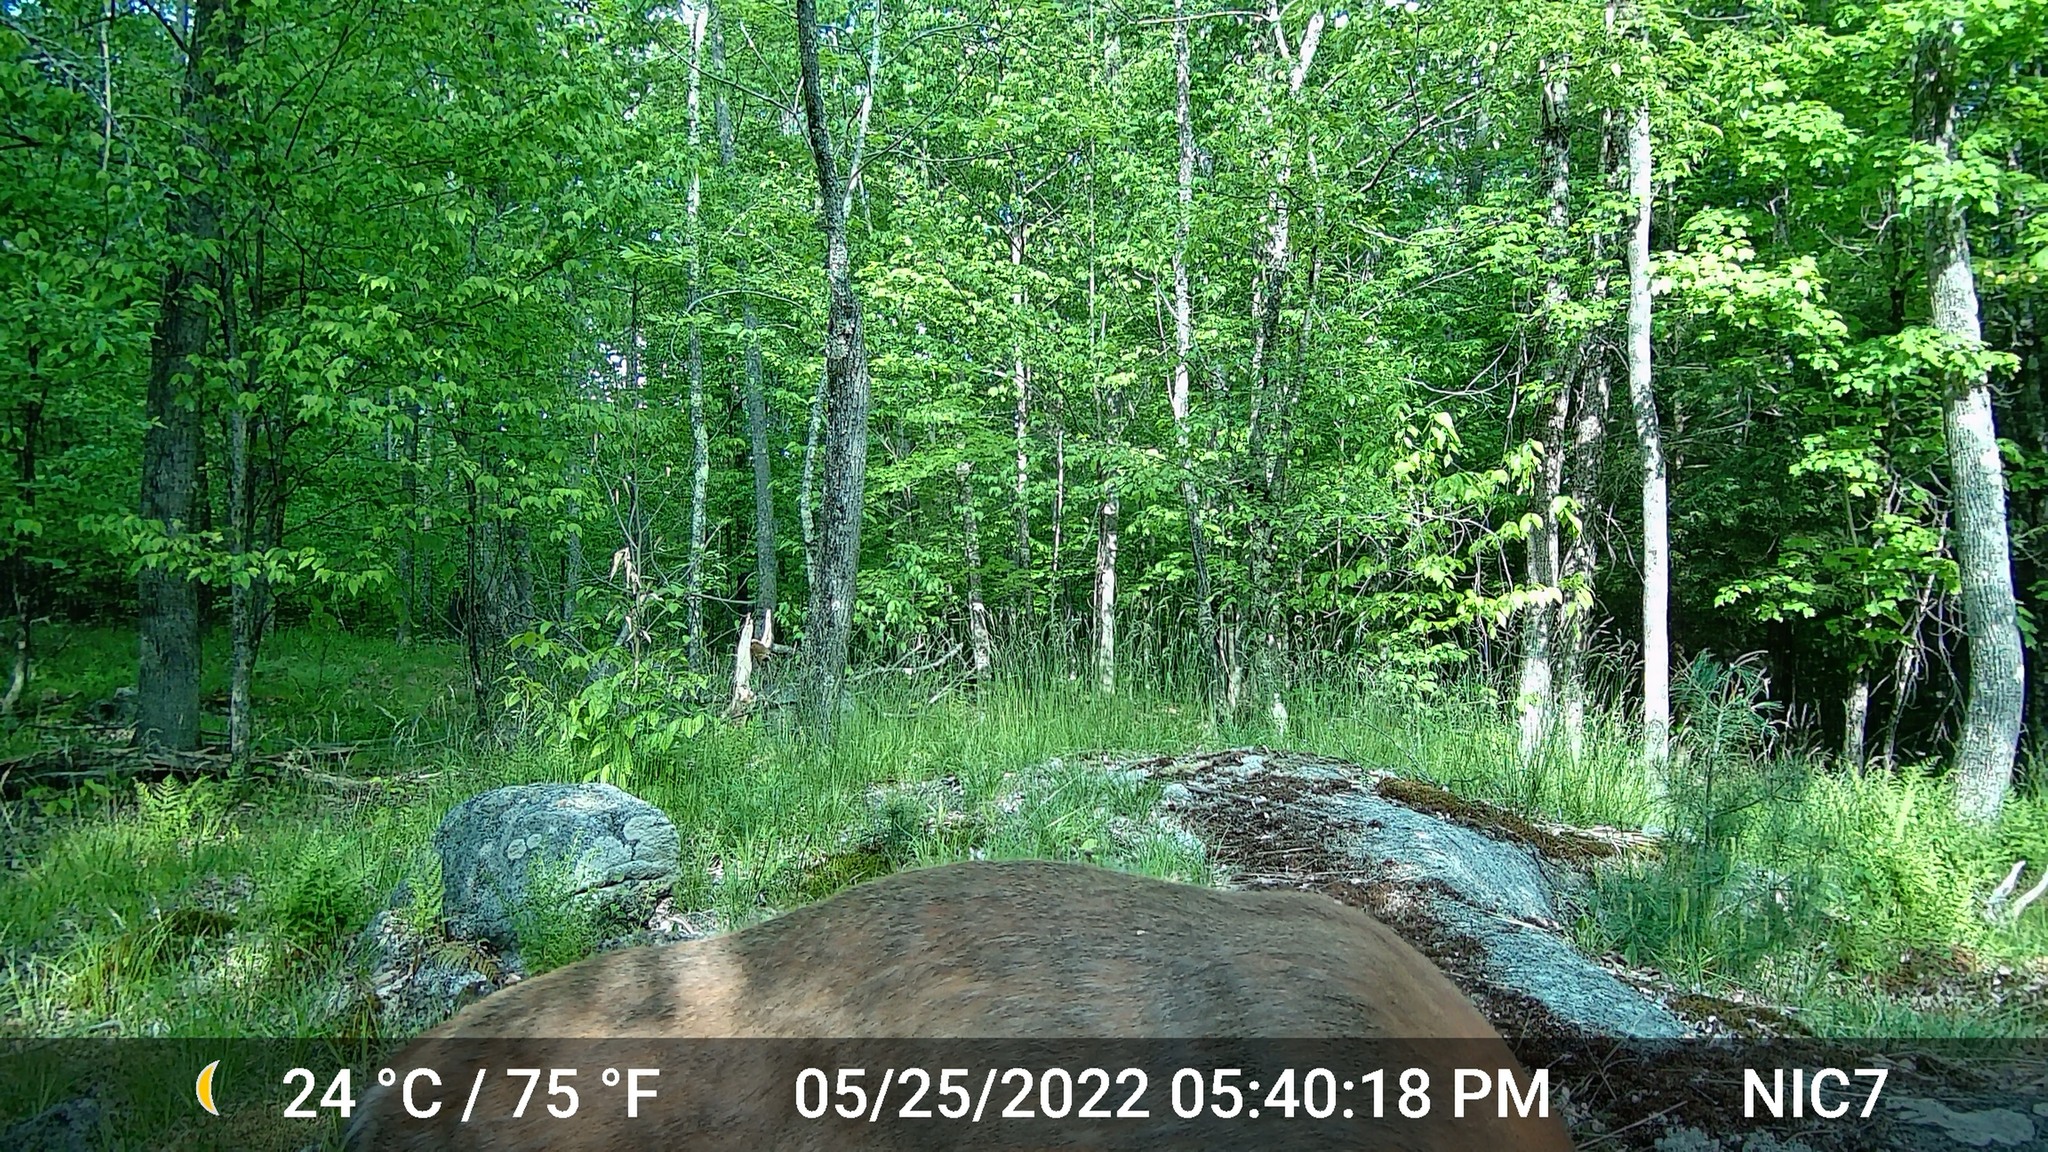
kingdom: Animalia
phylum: Chordata
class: Mammalia
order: Artiodactyla
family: Cervidae
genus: Odocoileus
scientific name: Odocoileus virginianus
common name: White-tailed deer
